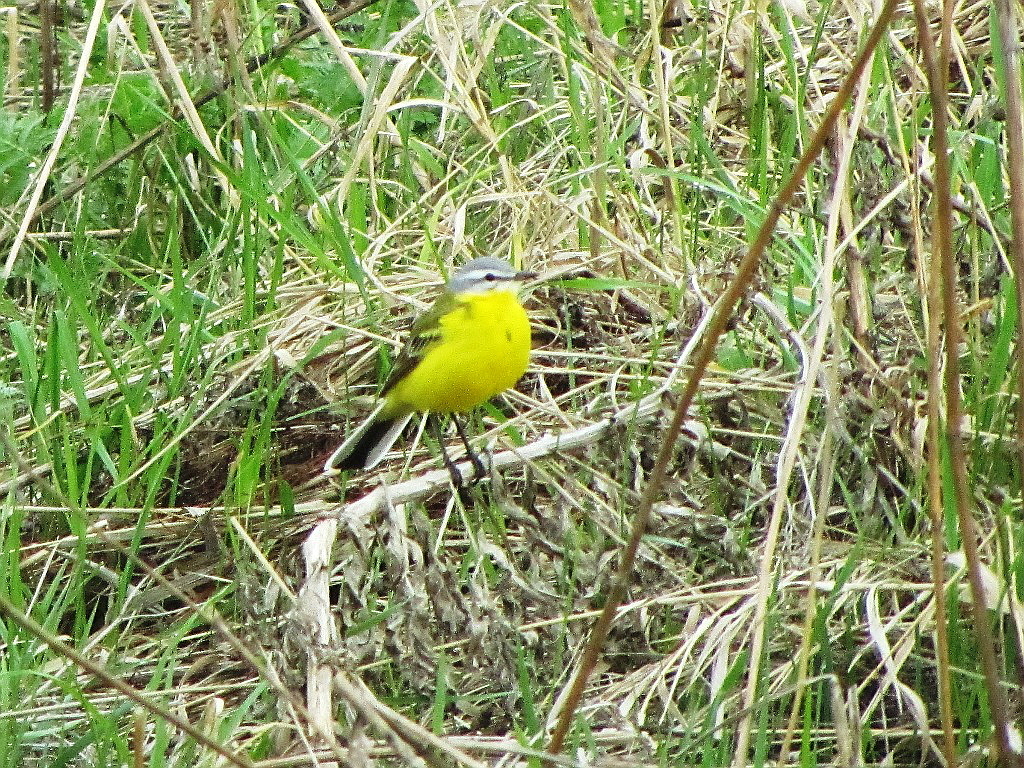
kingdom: Animalia
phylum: Chordata
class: Aves
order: Passeriformes
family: Motacillidae
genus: Motacilla
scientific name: Motacilla flava
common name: Western yellow wagtail
